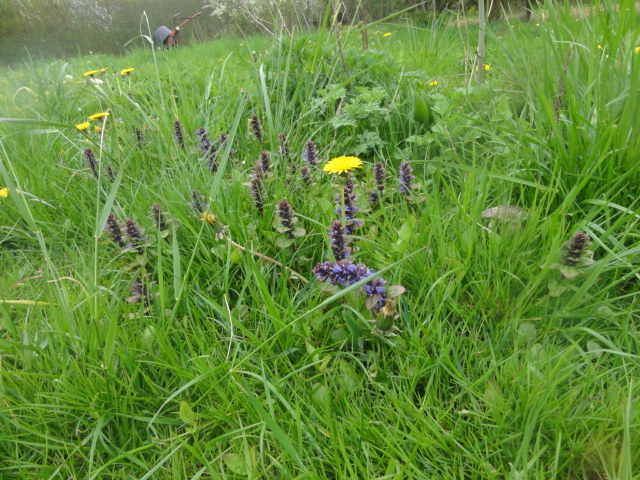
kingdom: Plantae
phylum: Tracheophyta
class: Magnoliopsida
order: Lamiales
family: Lamiaceae
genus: Ajuga
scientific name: Ajuga reptans
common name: Bugle
